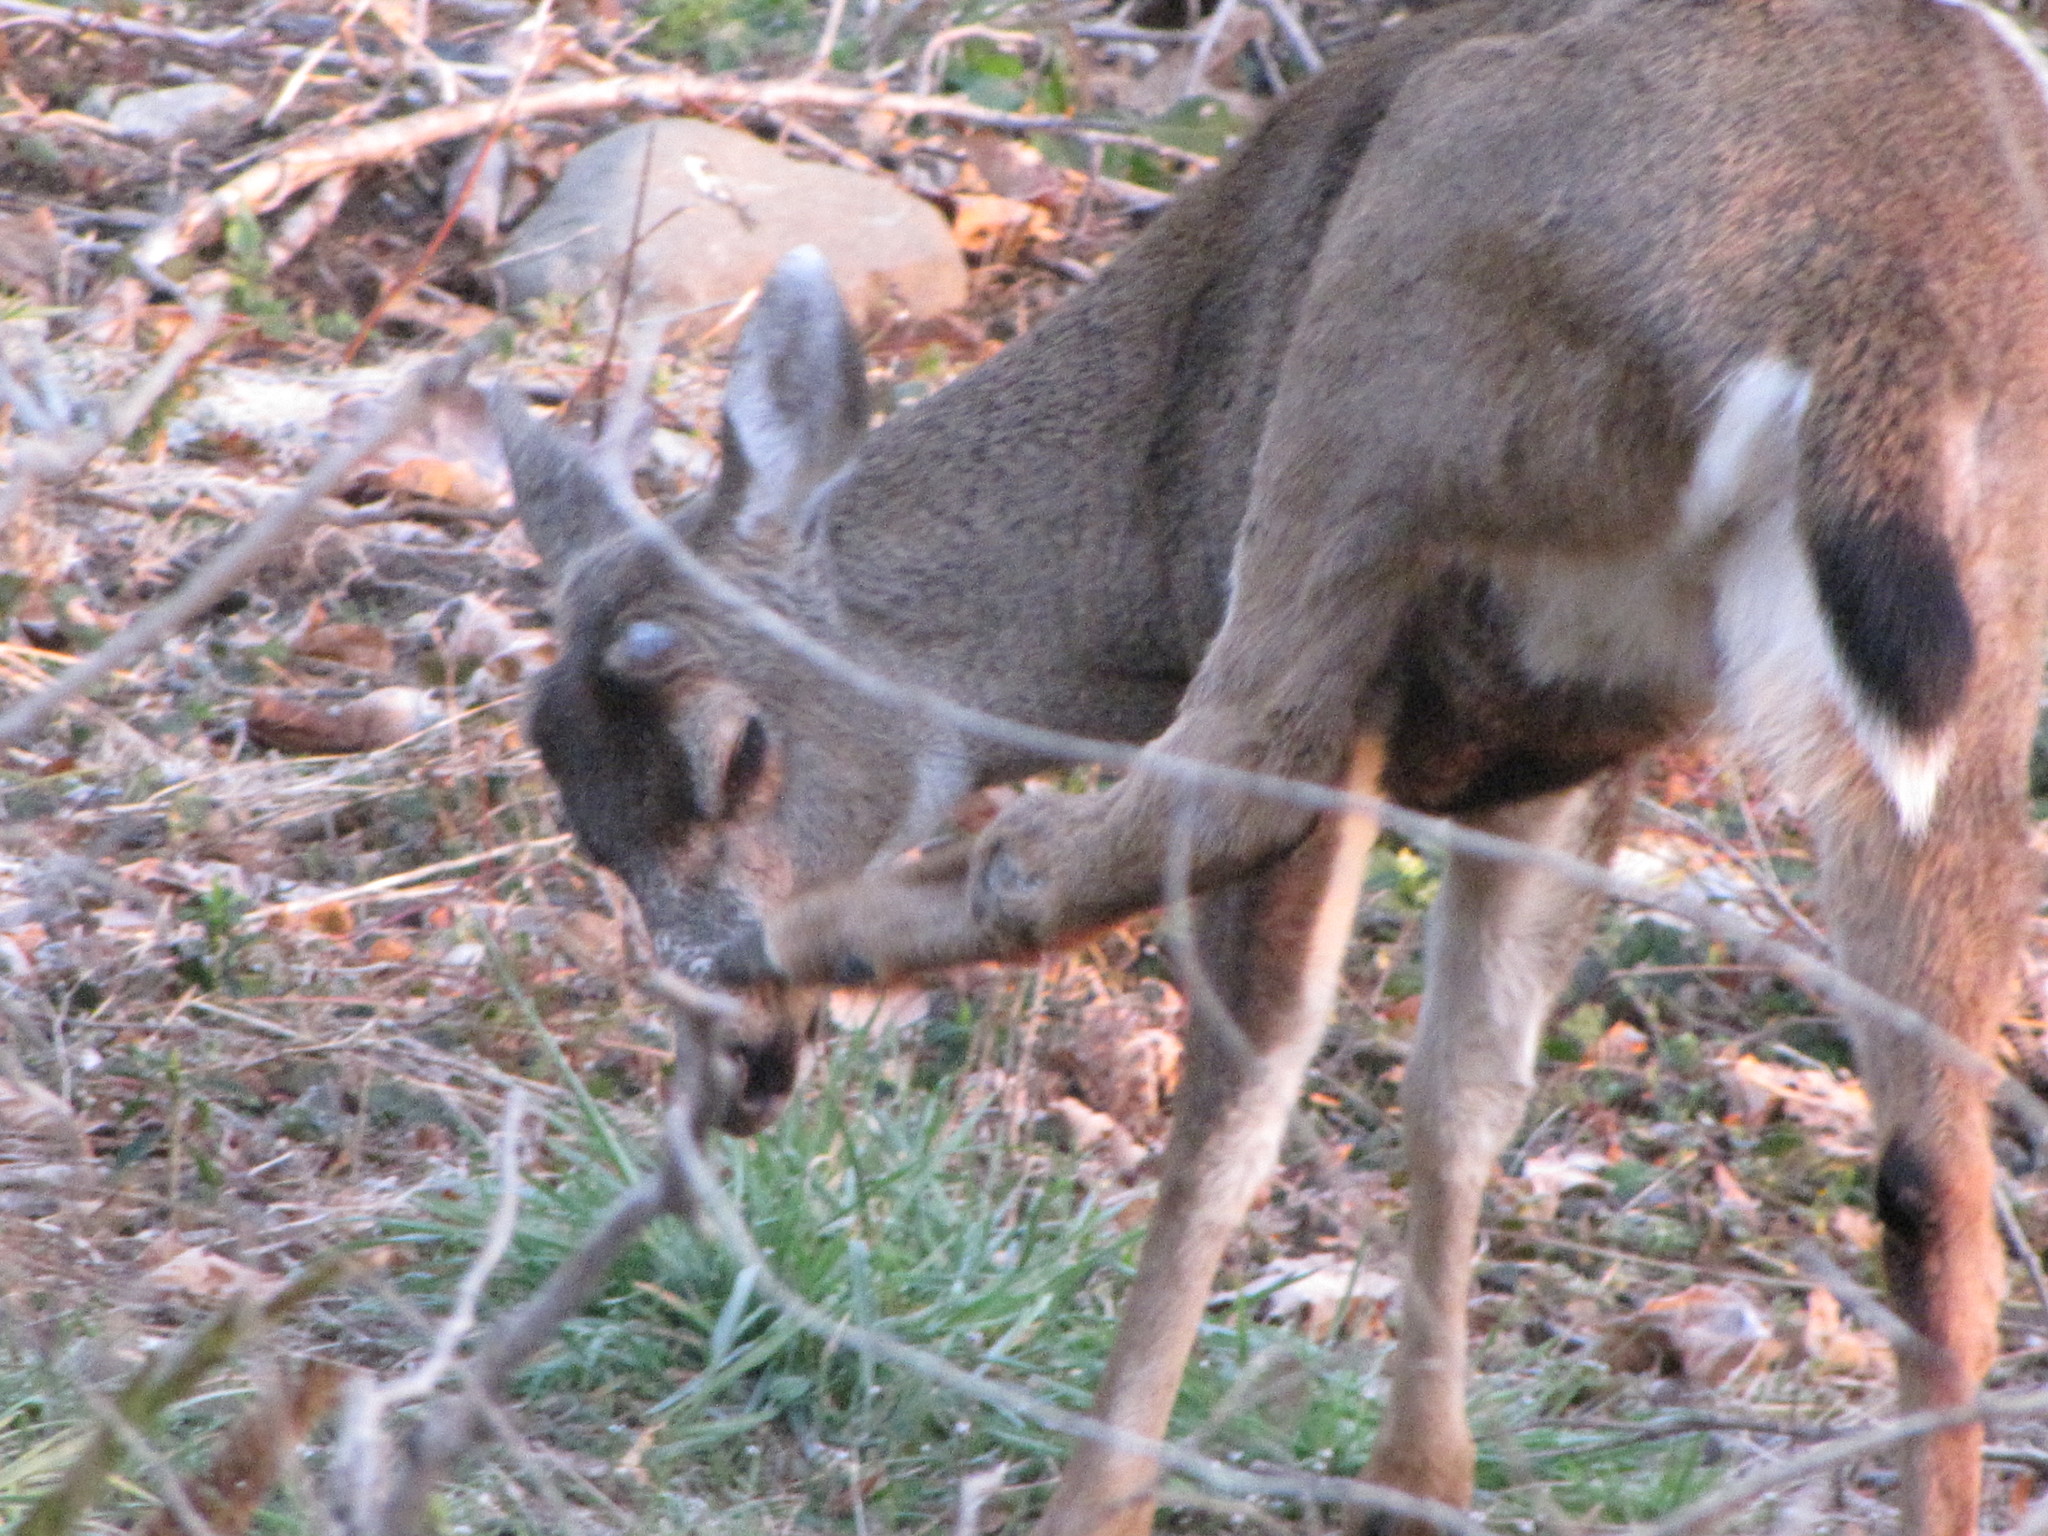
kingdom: Animalia
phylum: Chordata
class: Mammalia
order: Artiodactyla
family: Cervidae
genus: Odocoileus
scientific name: Odocoileus hemionus
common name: Mule deer
